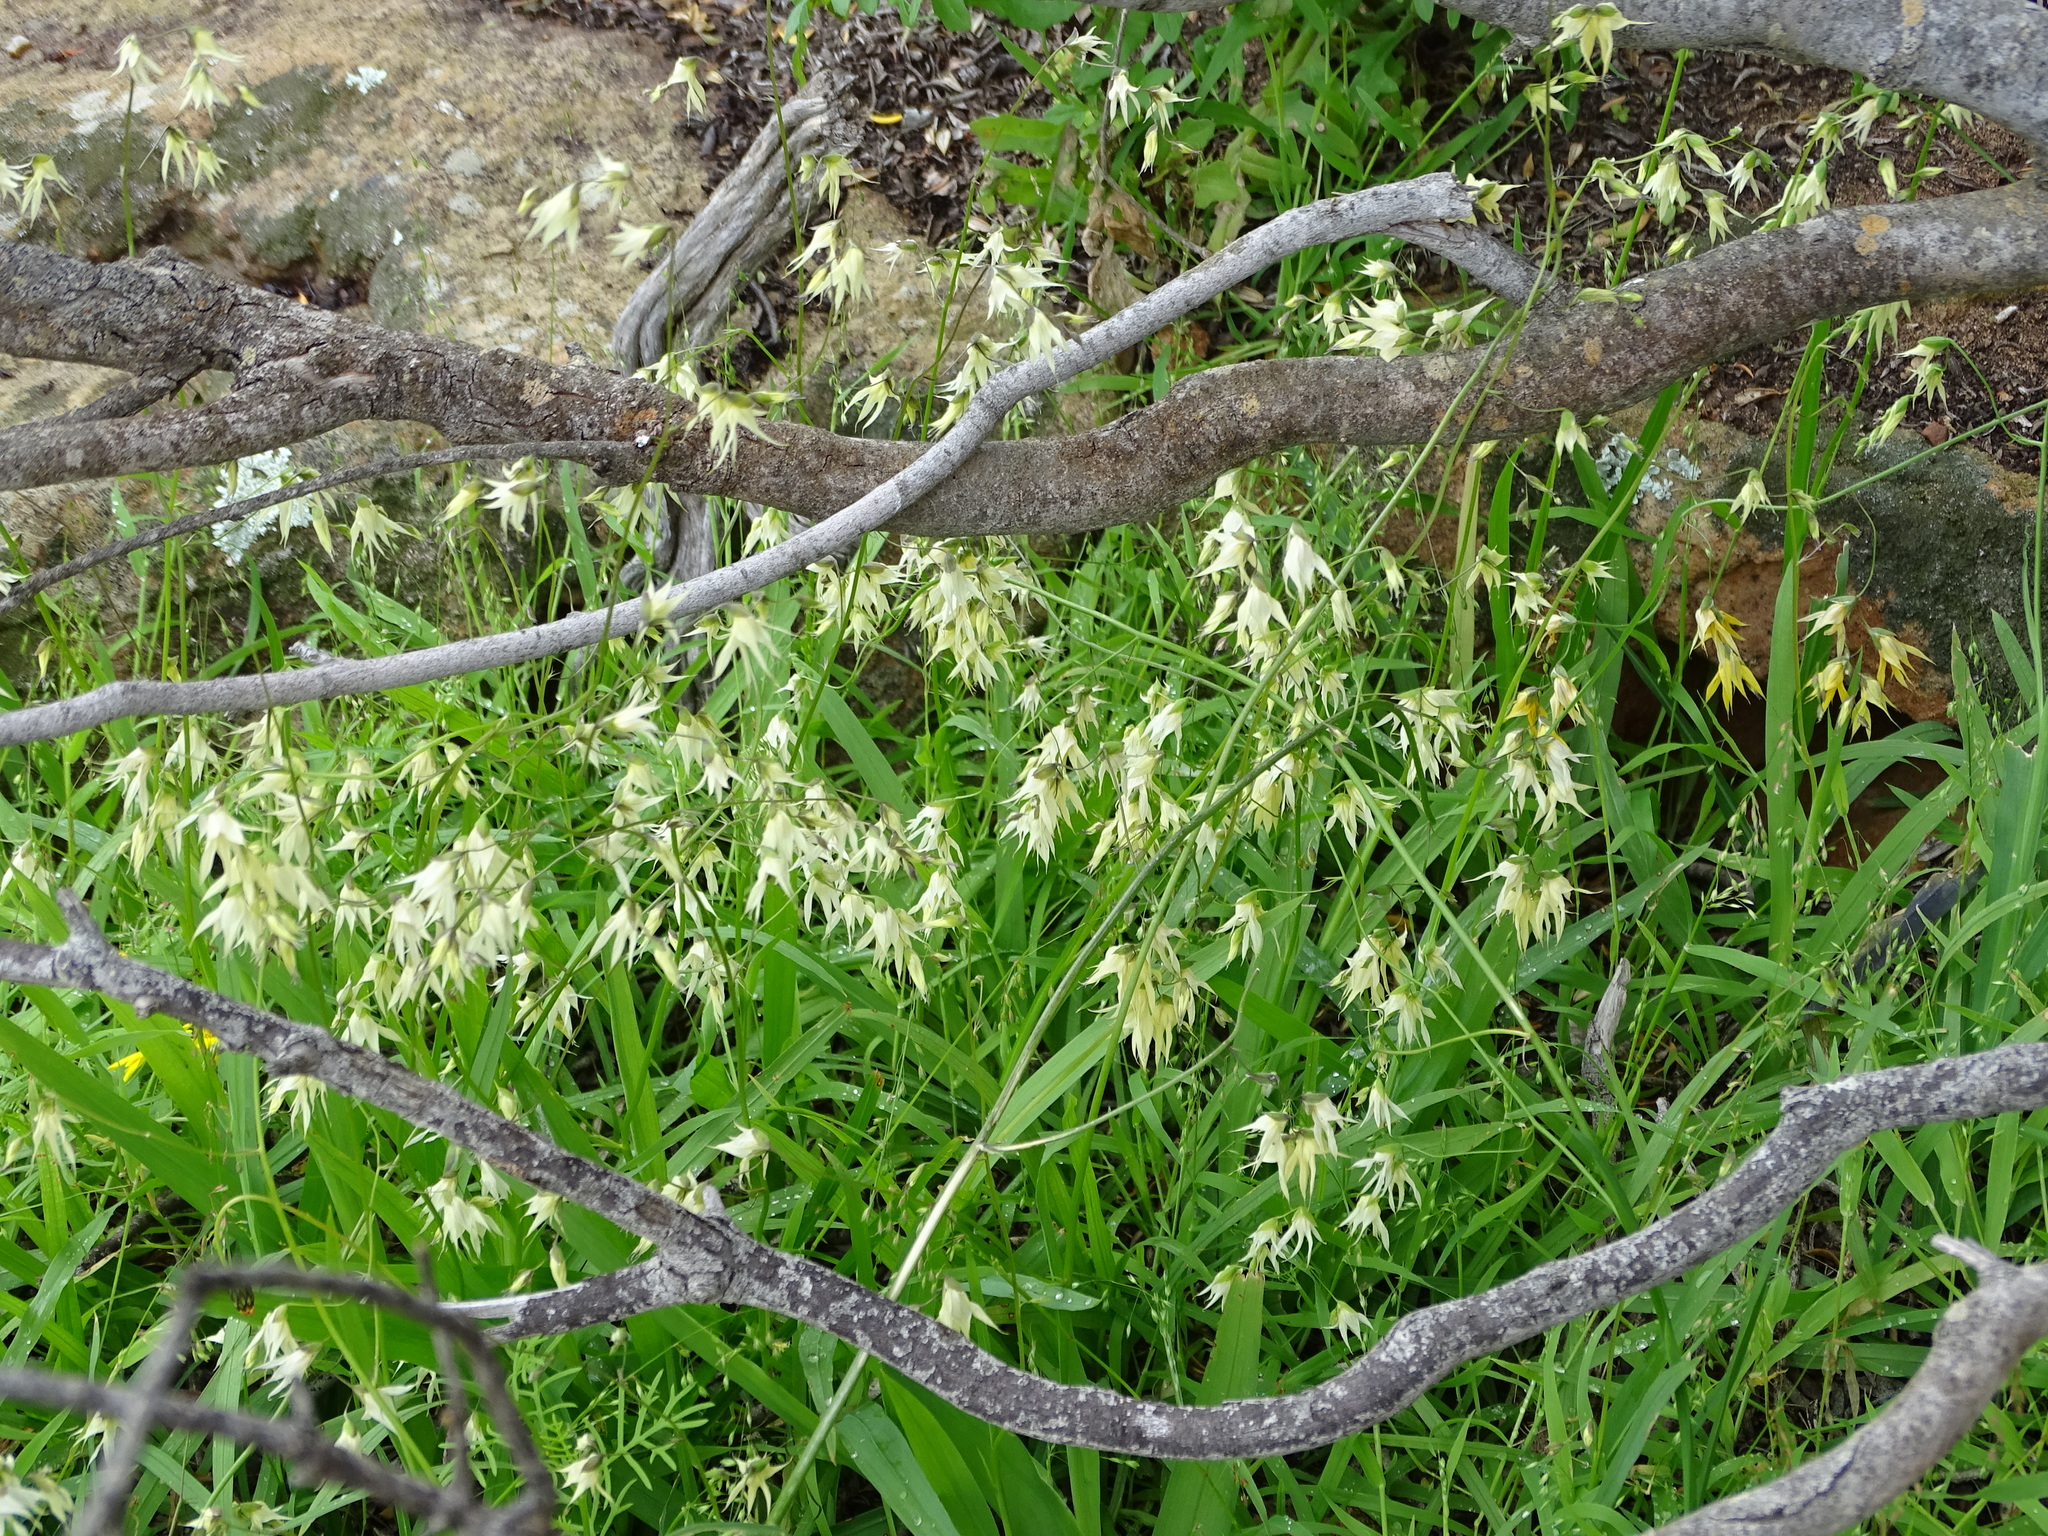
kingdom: Plantae
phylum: Tracheophyta
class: Liliopsida
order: Asparagales
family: Iridaceae
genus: Melasphaerula
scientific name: Melasphaerula graminea
